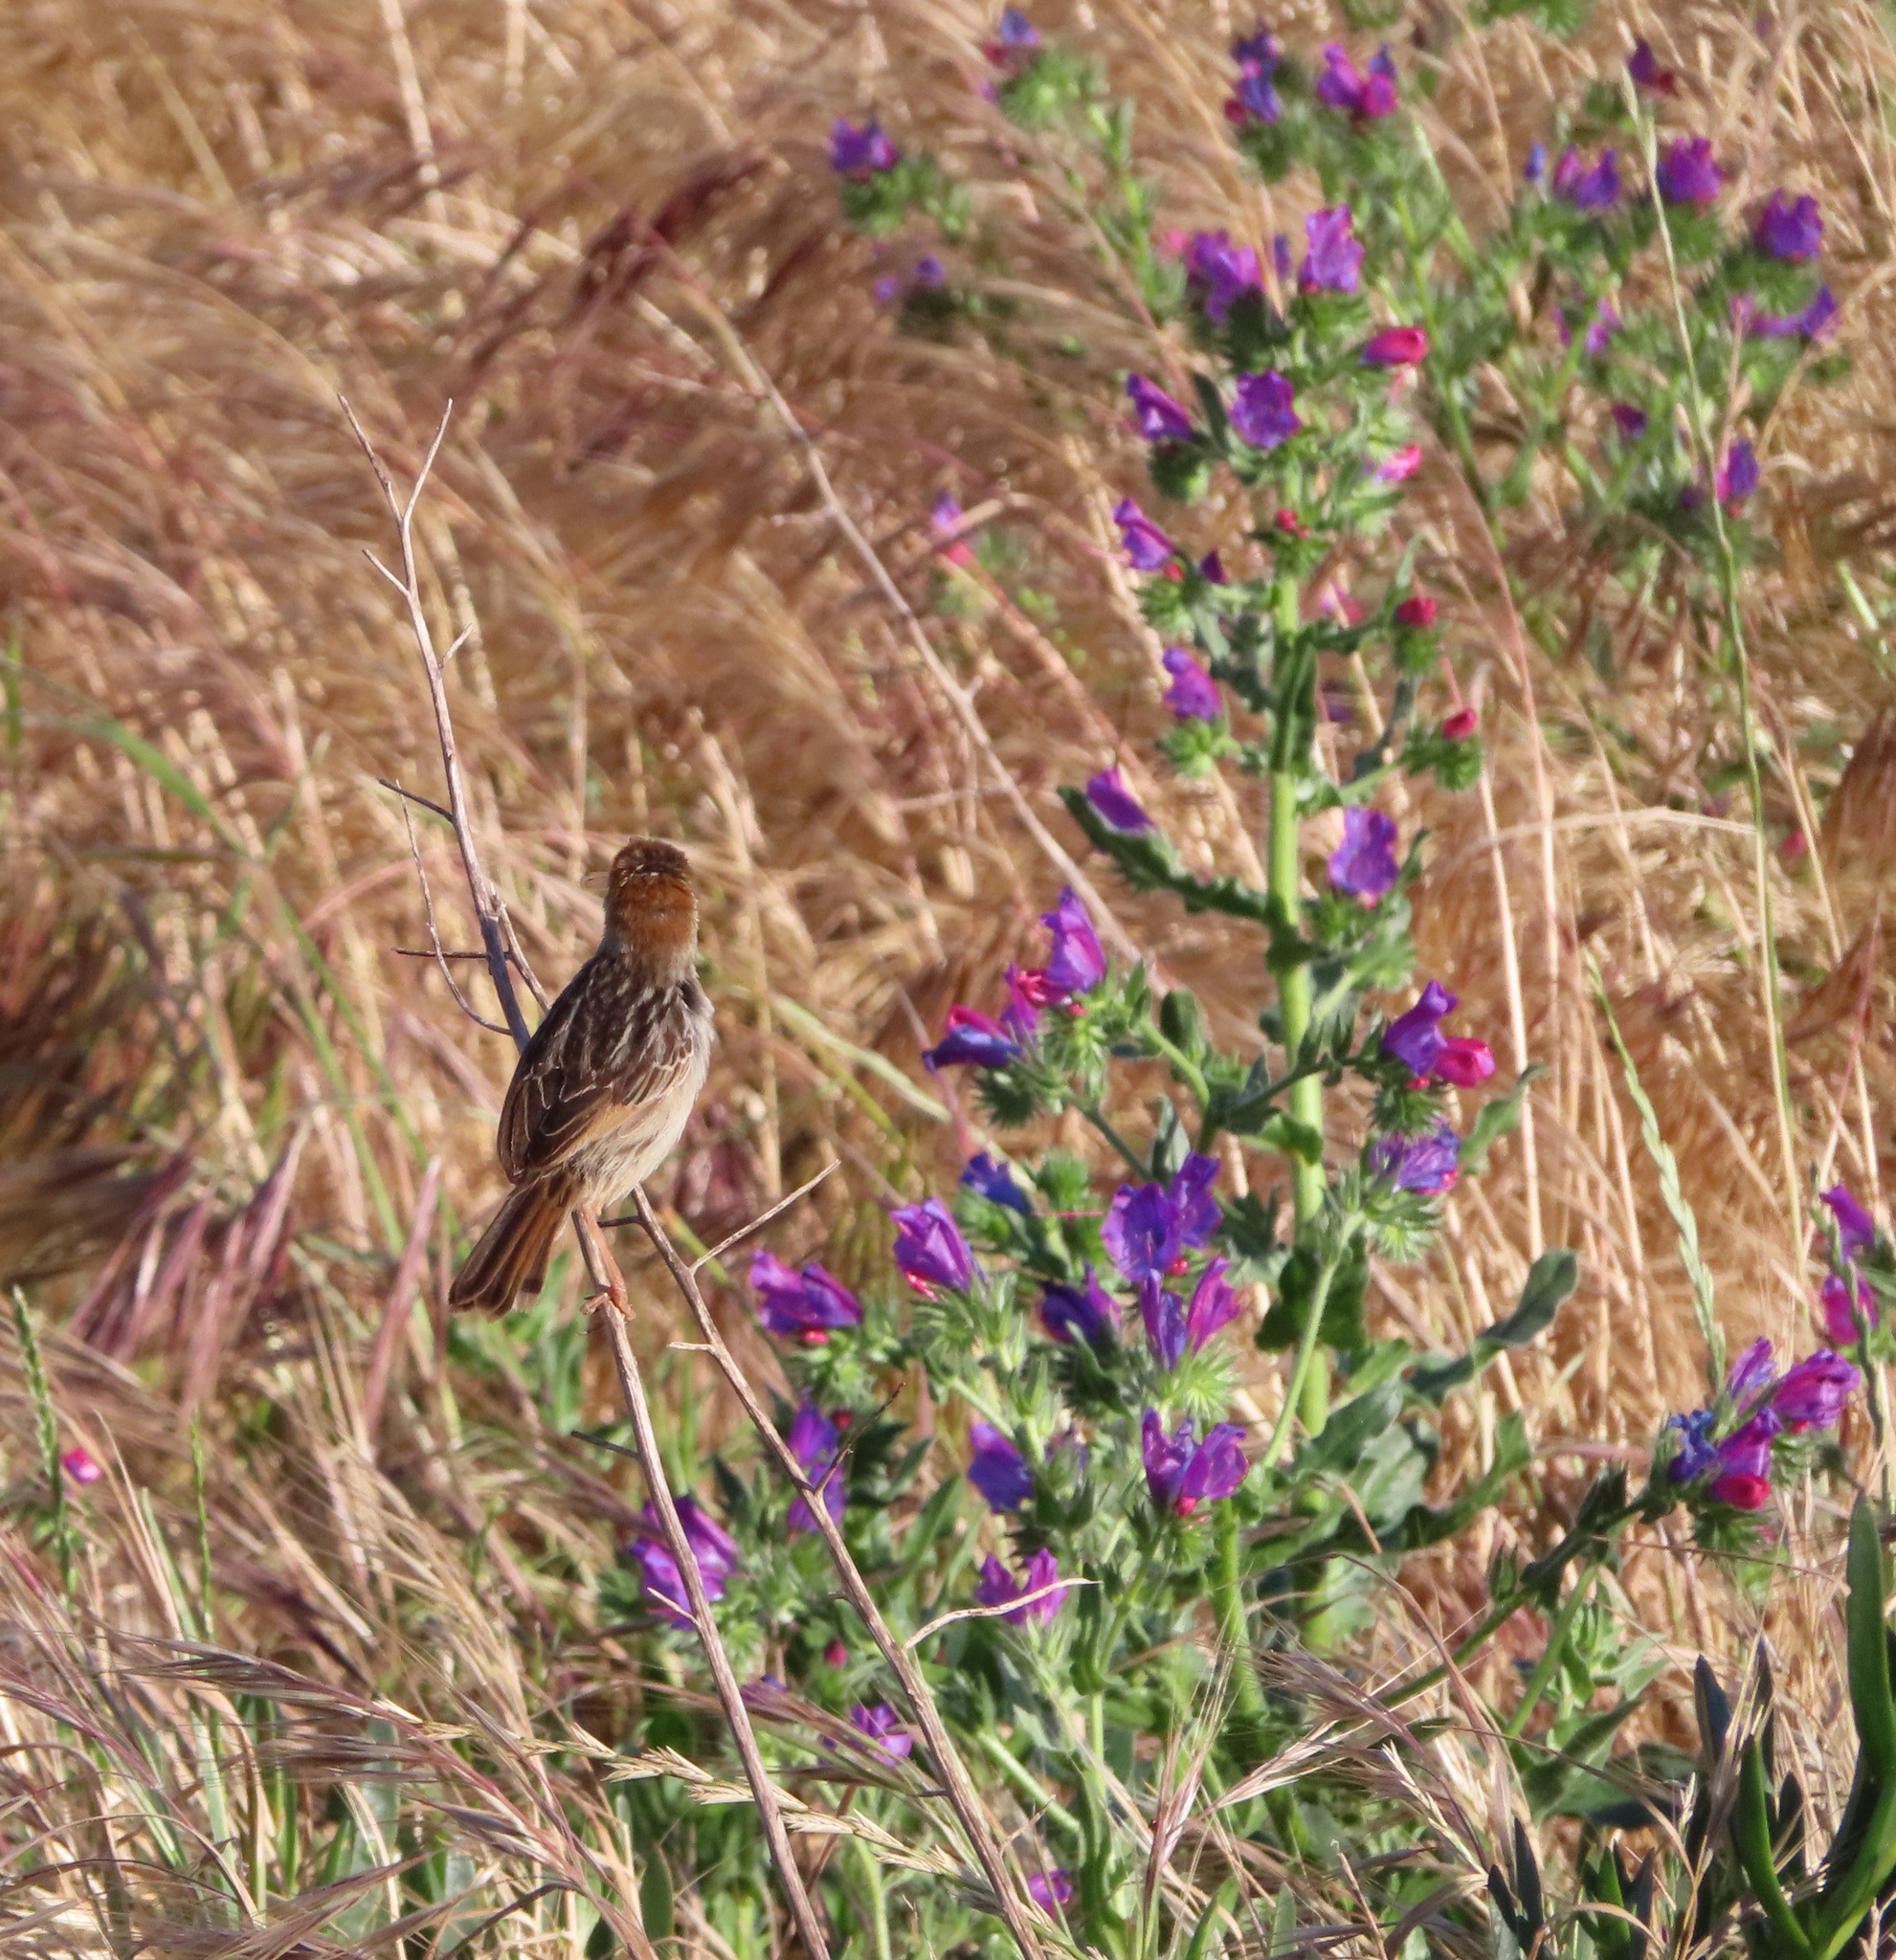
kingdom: Animalia
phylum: Chordata
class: Aves
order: Passeriformes
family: Cisticolidae
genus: Cisticola
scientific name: Cisticola tinniens
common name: Levaillant's cisticola
